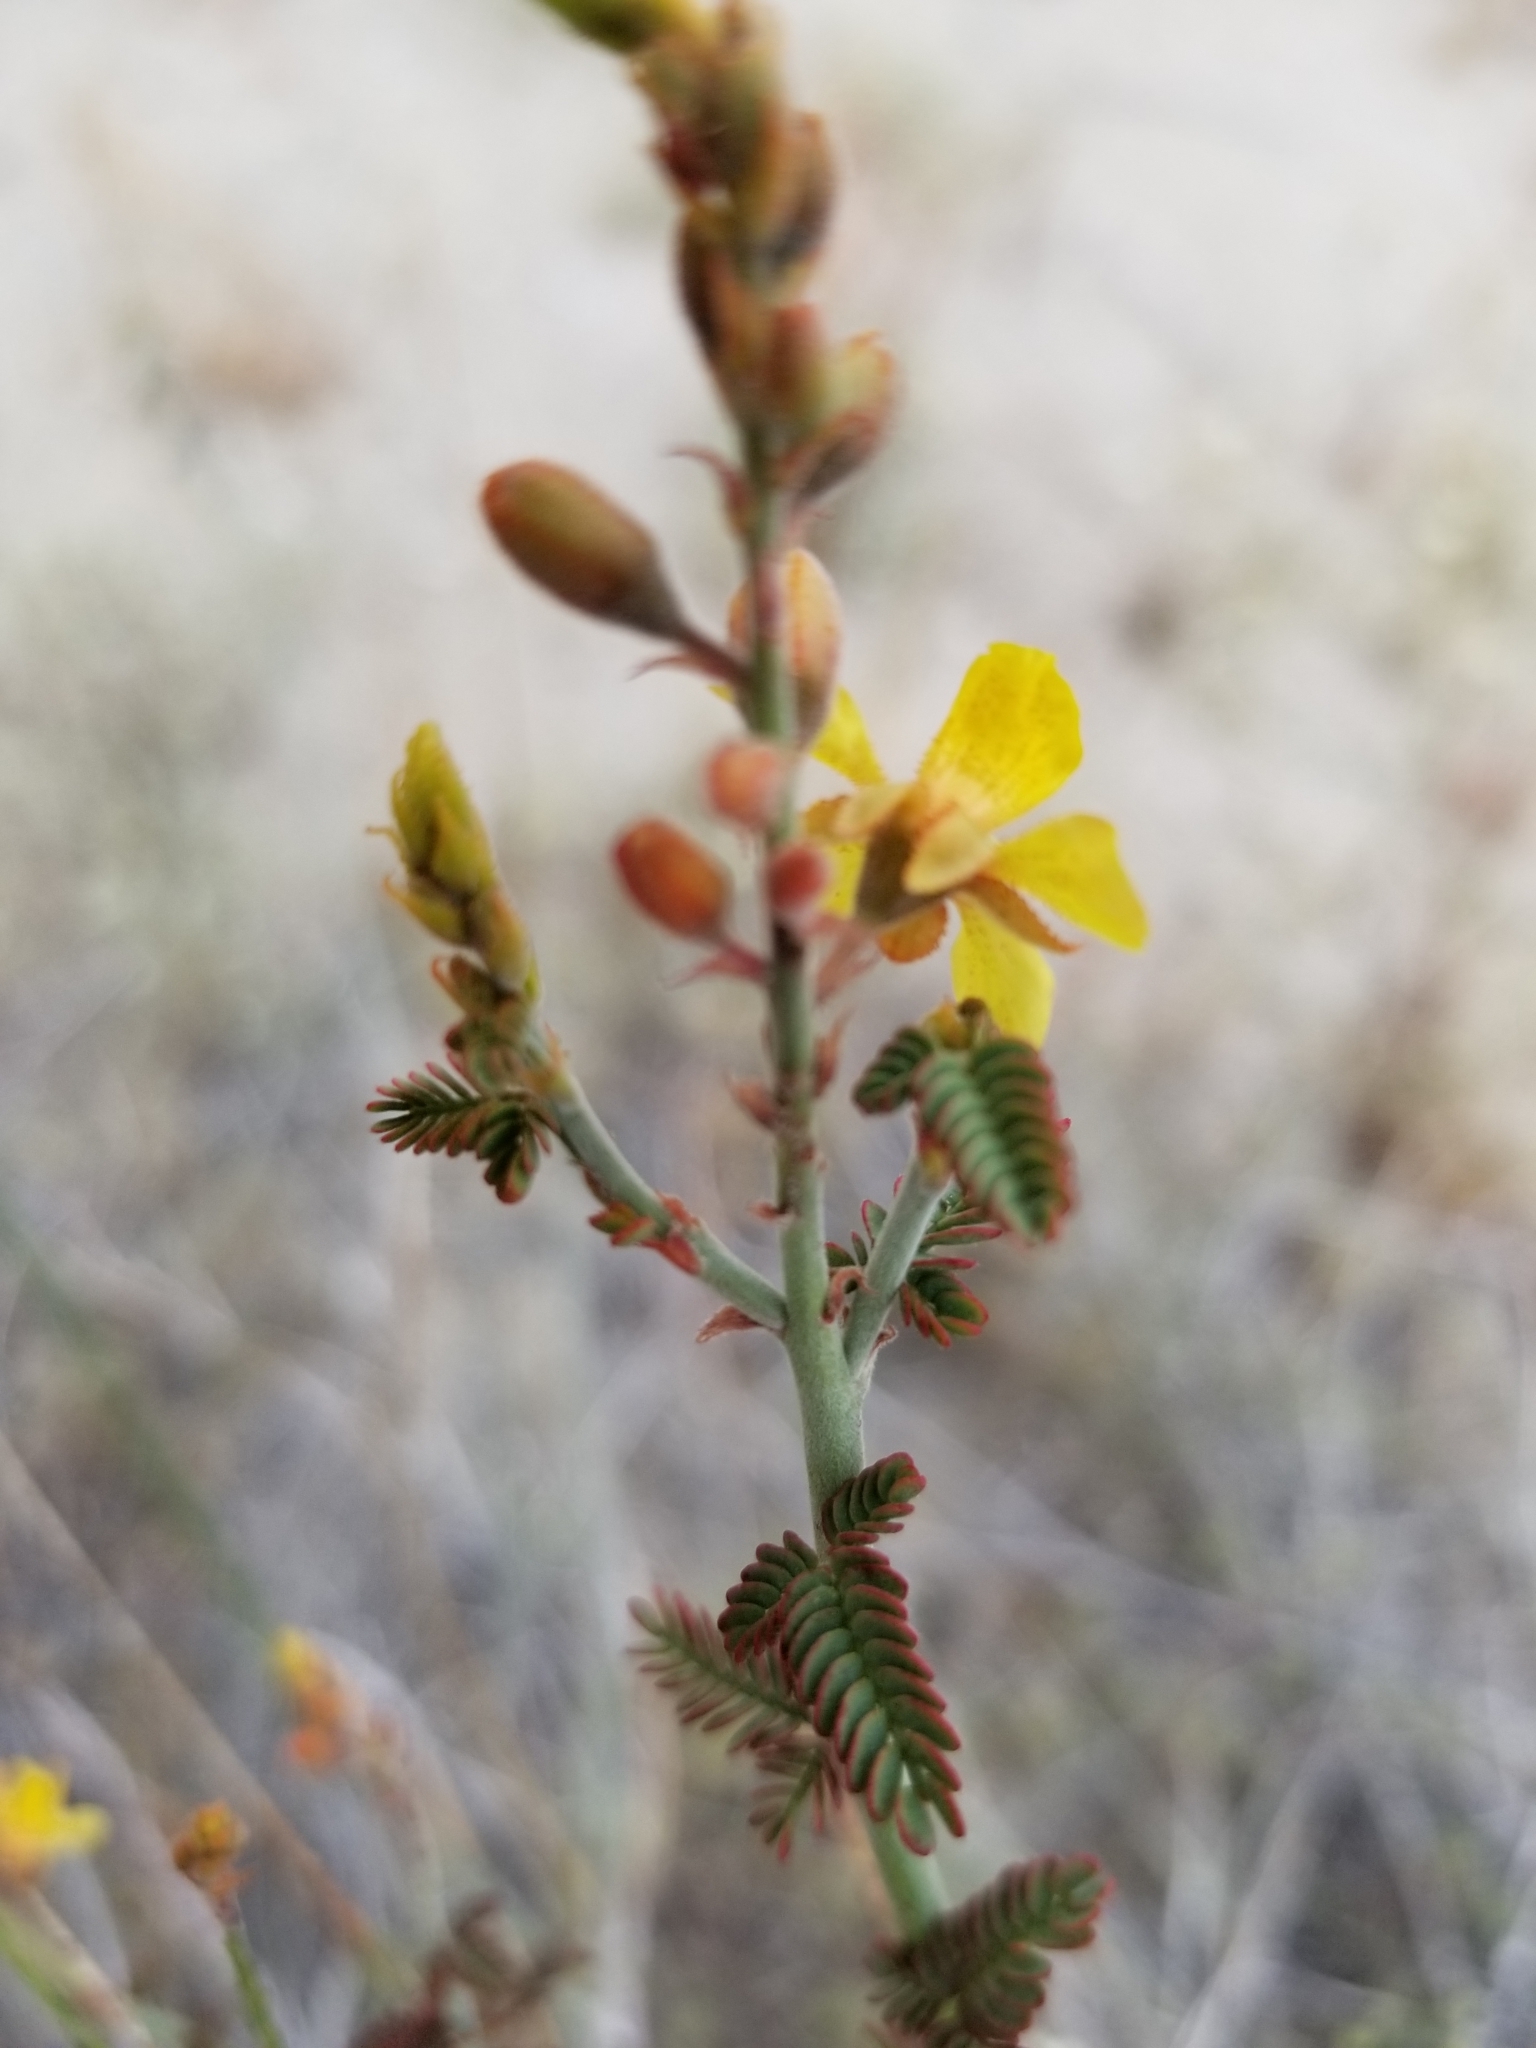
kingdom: Plantae
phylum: Tracheophyta
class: Magnoliopsida
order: Fabales
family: Fabaceae
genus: Hoffmannseggia
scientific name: Hoffmannseggia microphylla
